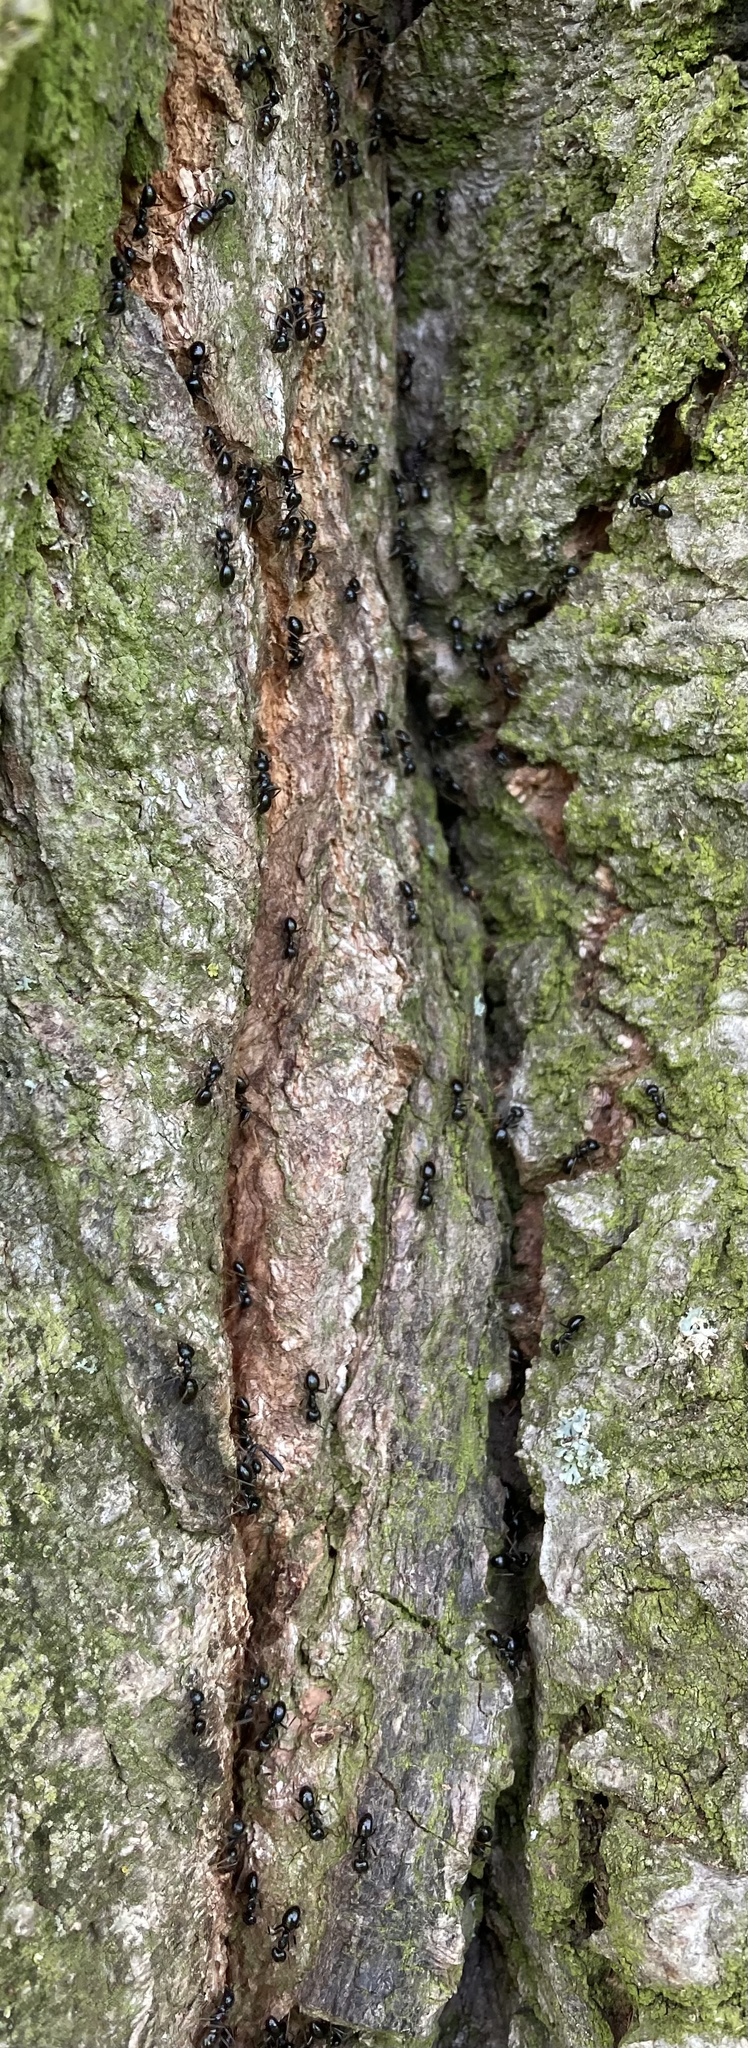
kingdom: Animalia
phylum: Arthropoda
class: Insecta
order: Hymenoptera
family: Formicidae
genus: Lasius
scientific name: Lasius fuliginosus
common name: Jet ant
